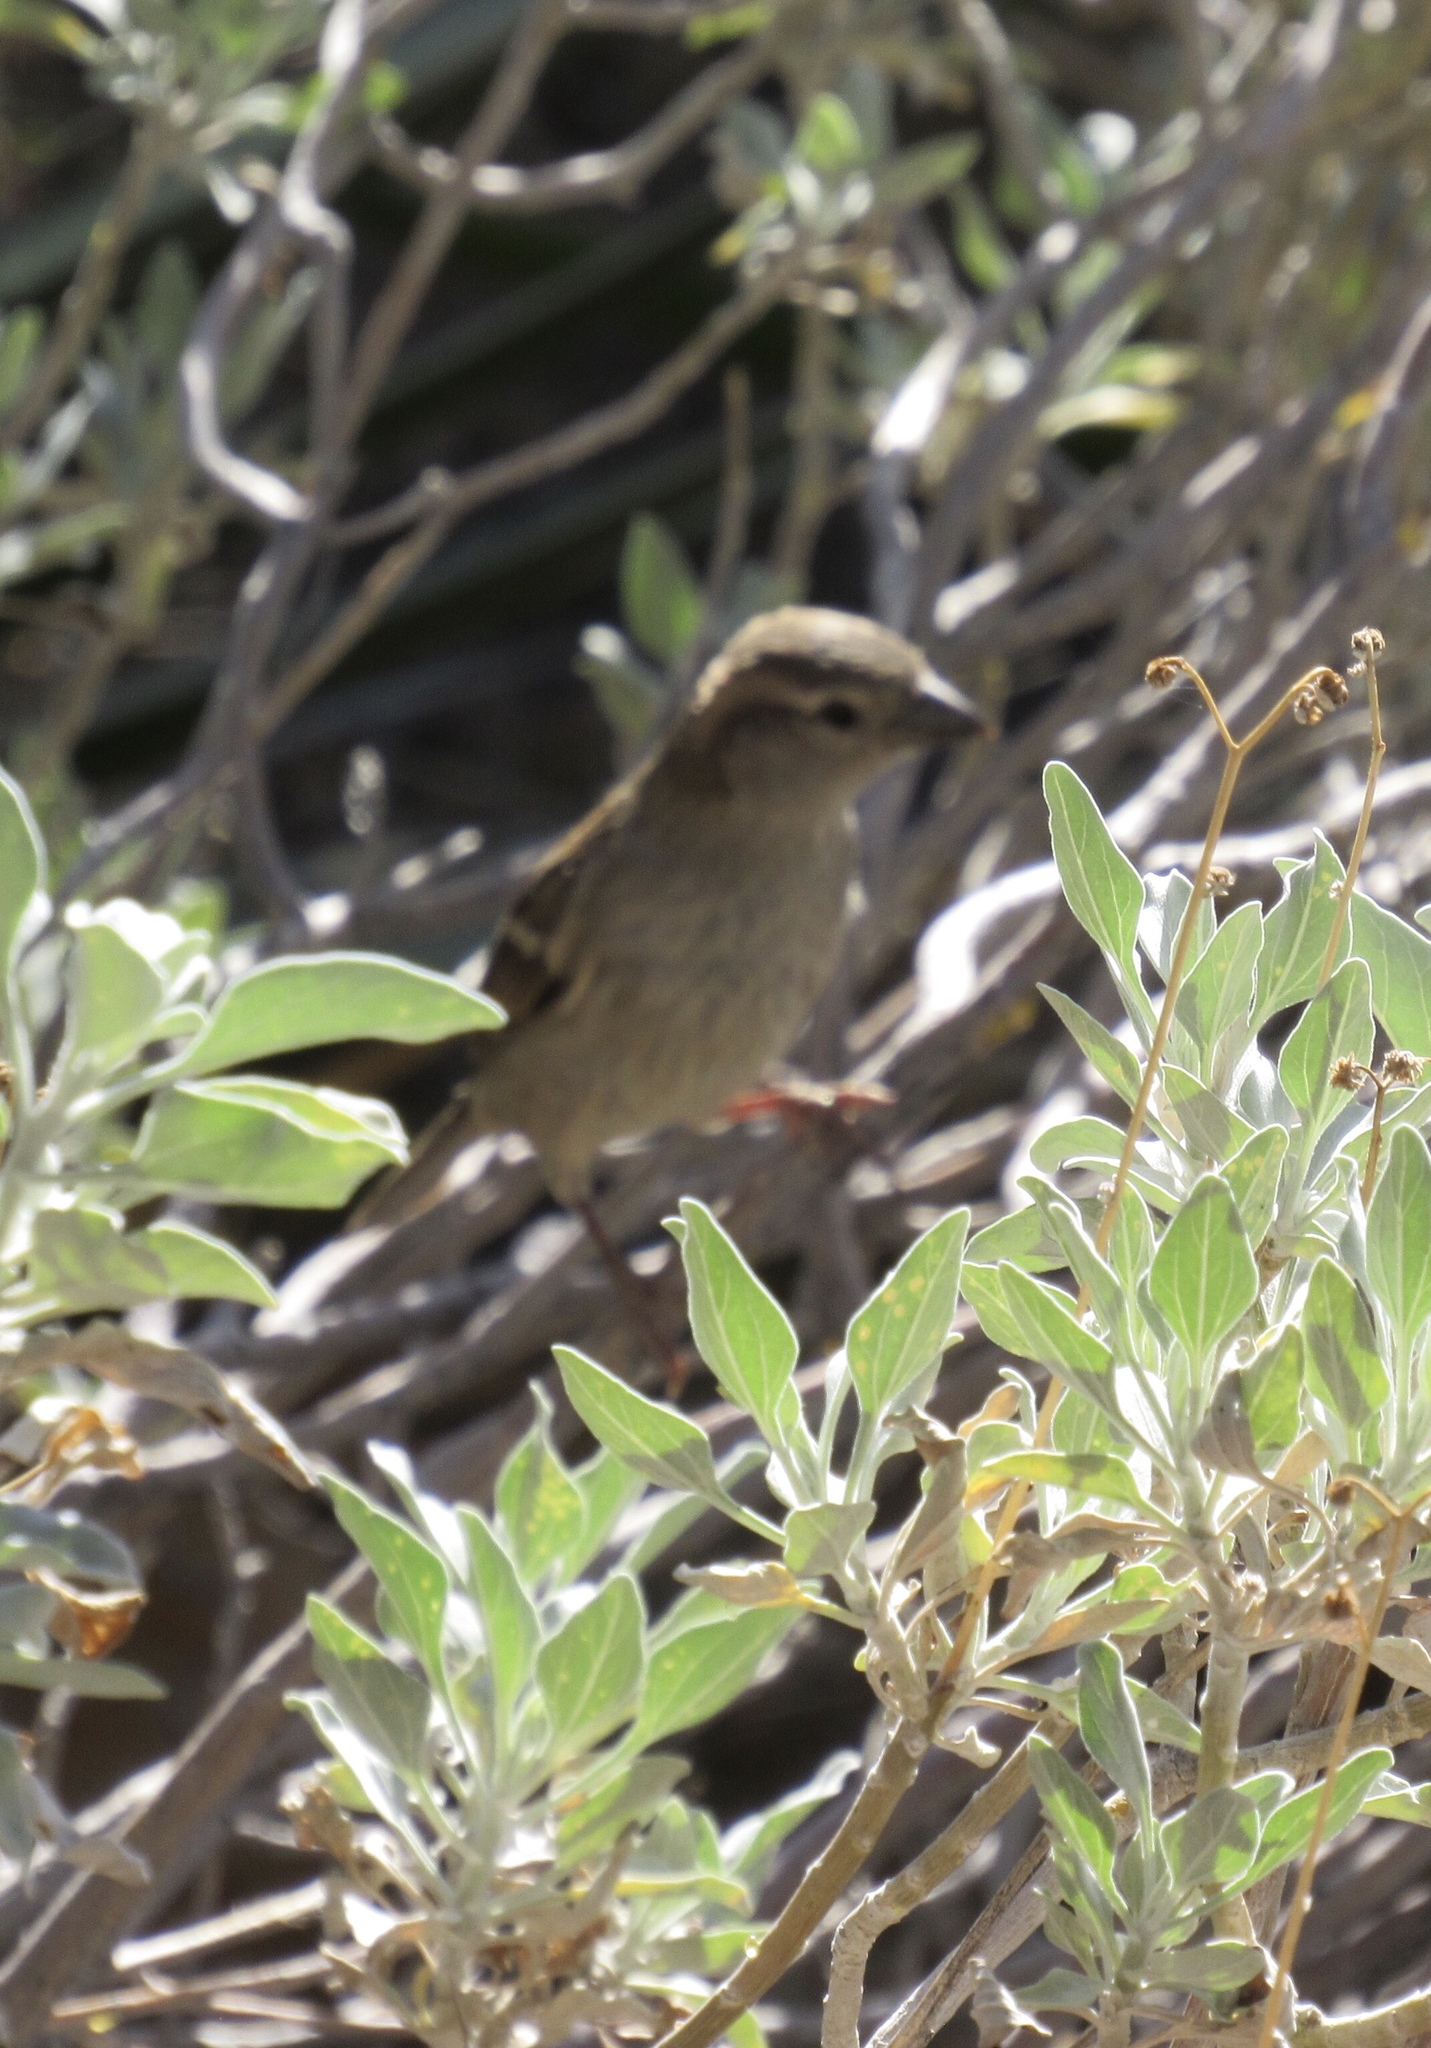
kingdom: Animalia
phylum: Chordata
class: Aves
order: Passeriformes
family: Passeridae
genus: Passer
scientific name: Passer domesticus
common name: House sparrow
